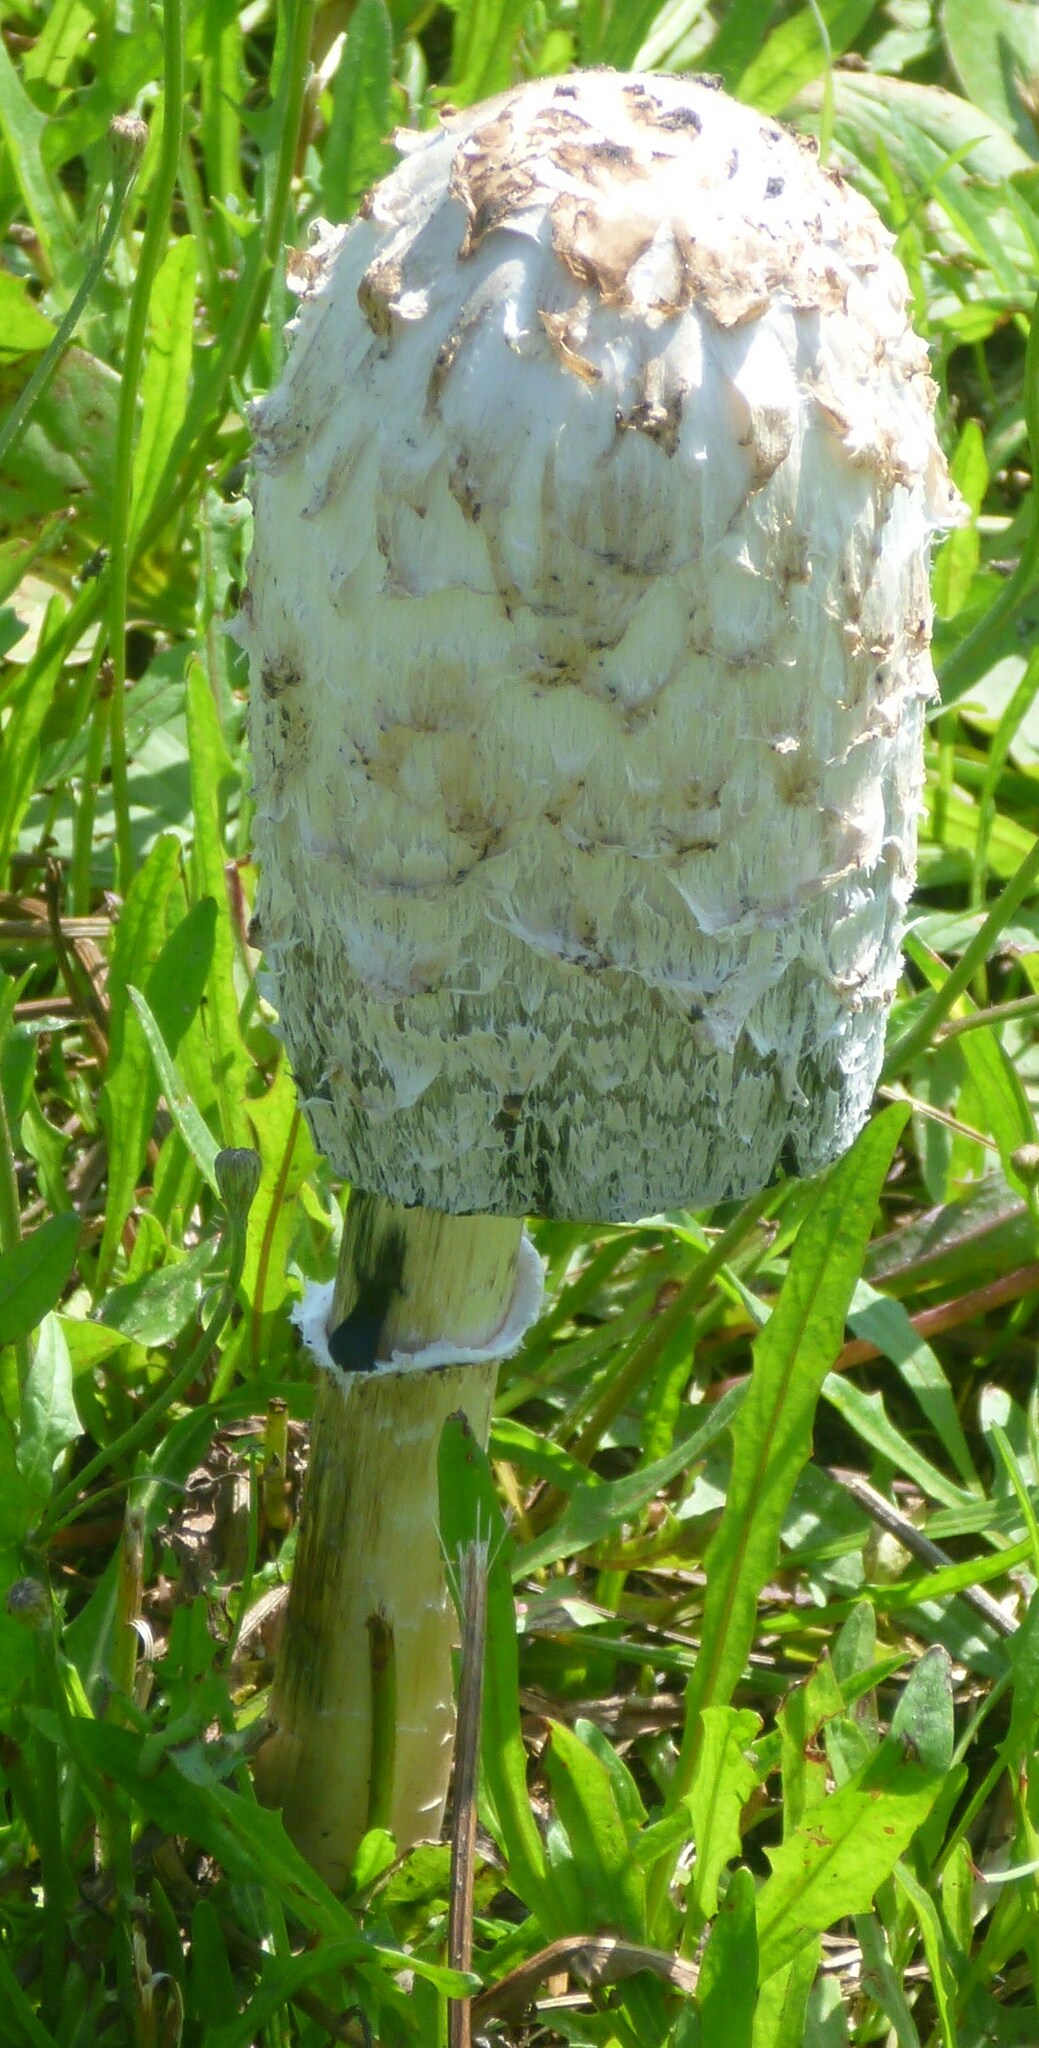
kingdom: Fungi
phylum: Basidiomycota
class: Agaricomycetes
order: Agaricales
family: Agaricaceae
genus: Coprinus
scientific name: Coprinus comatus
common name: Lawyer's wig
